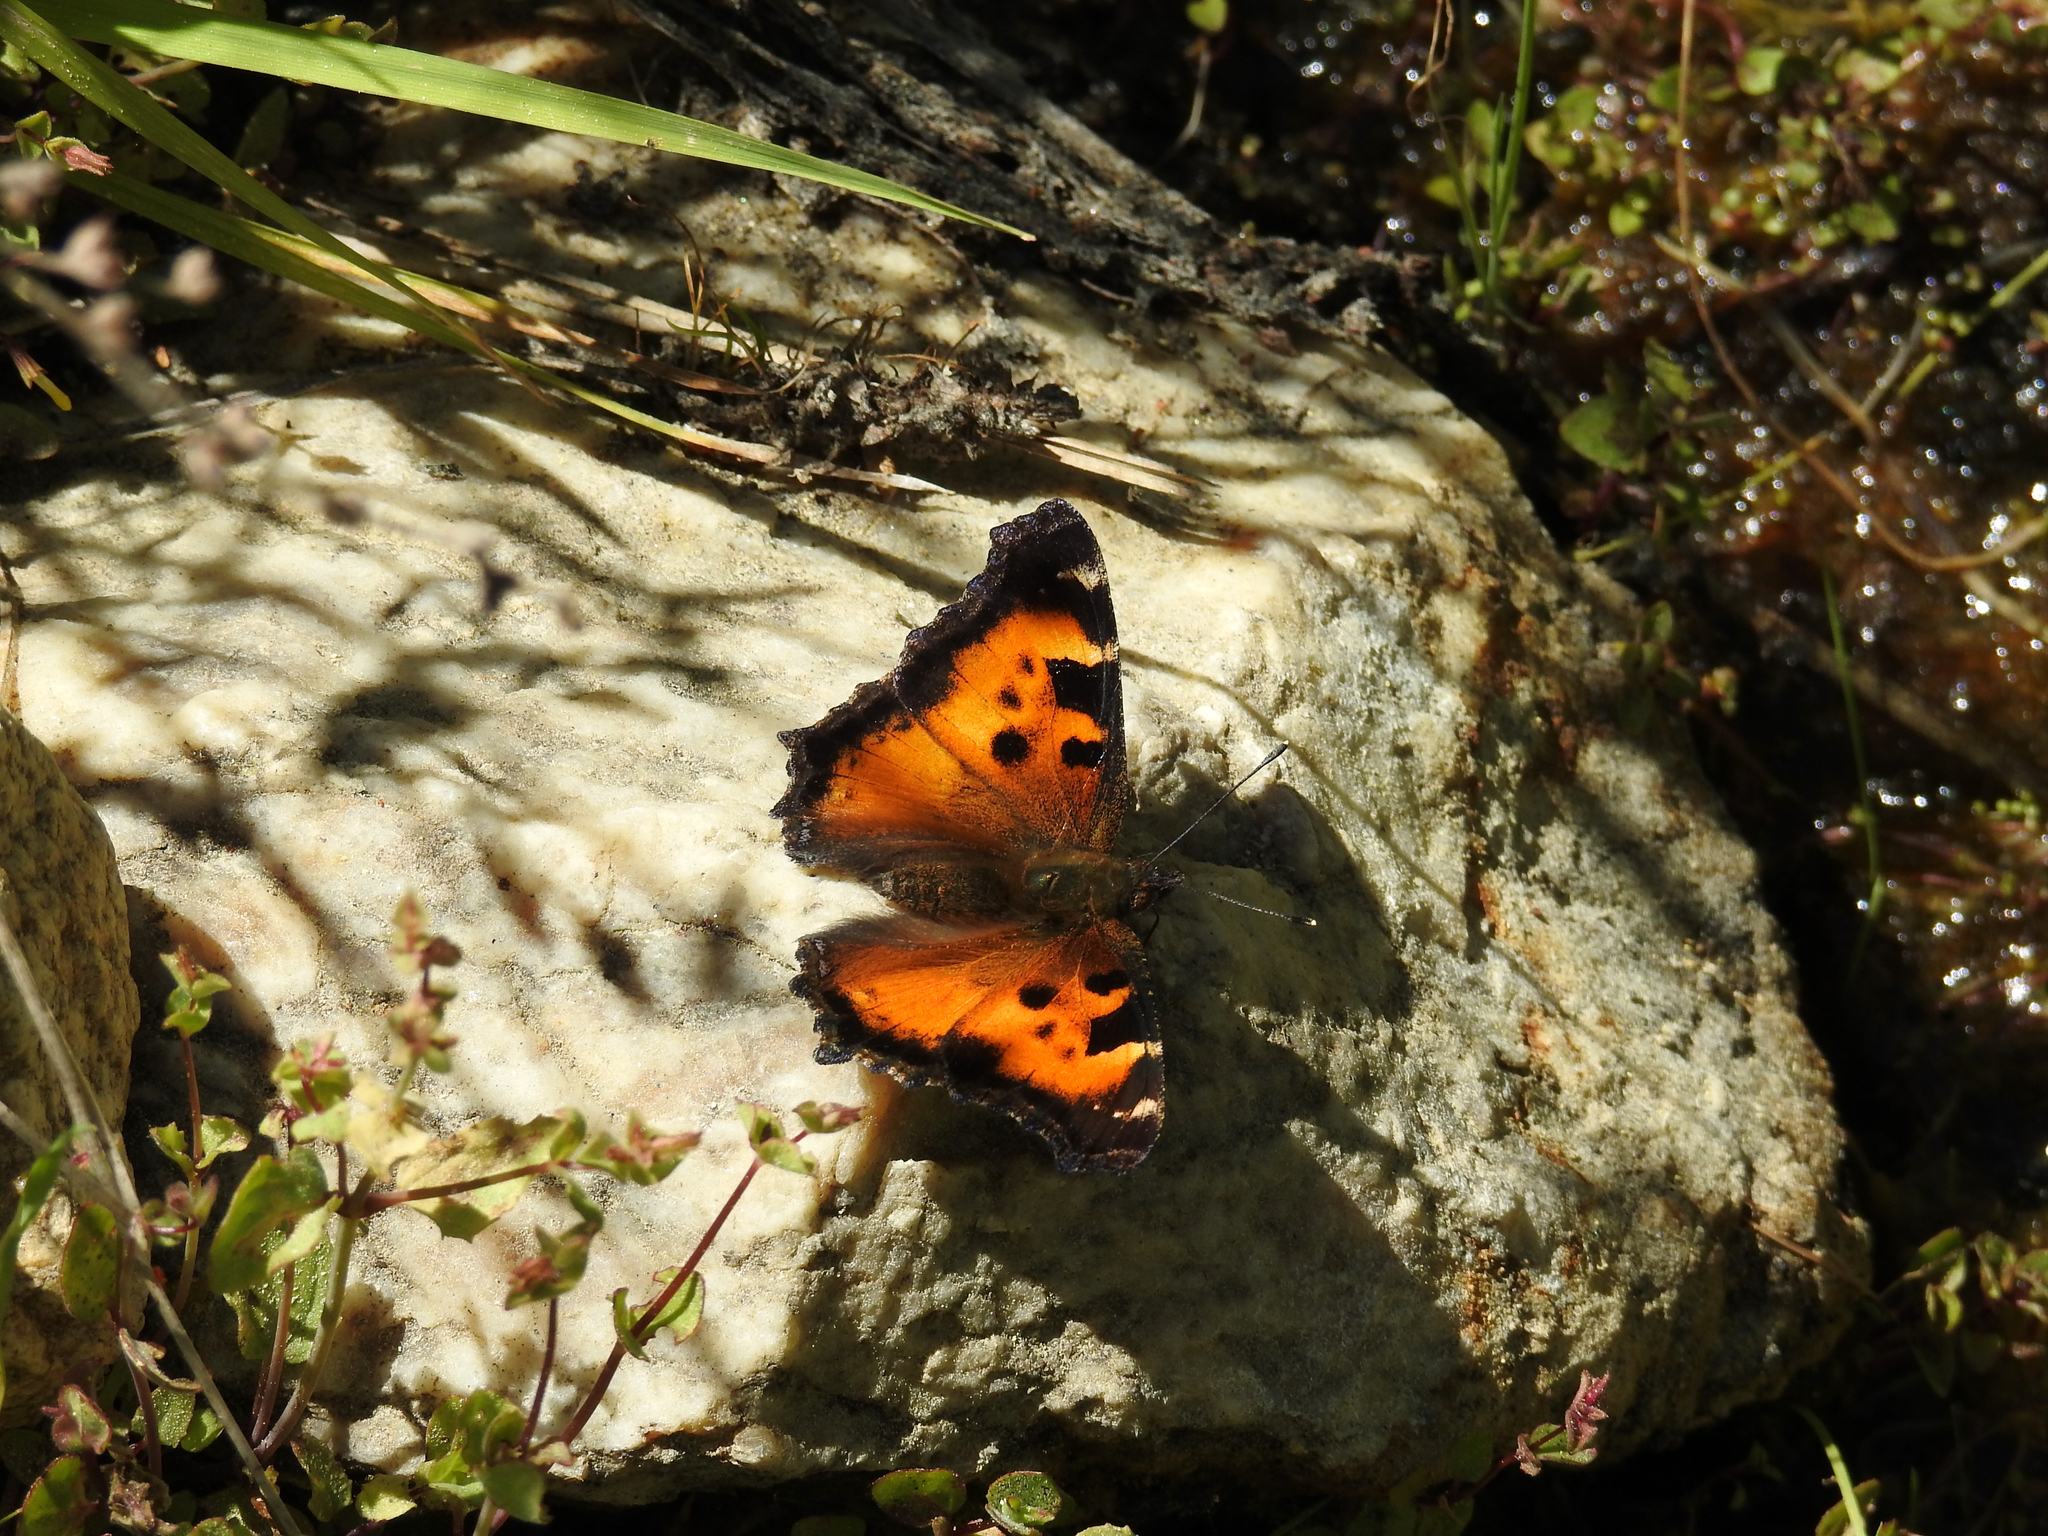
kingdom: Animalia
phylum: Arthropoda
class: Insecta
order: Lepidoptera
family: Nymphalidae
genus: Nymphalis
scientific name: Nymphalis californica
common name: California tortoiseshell
